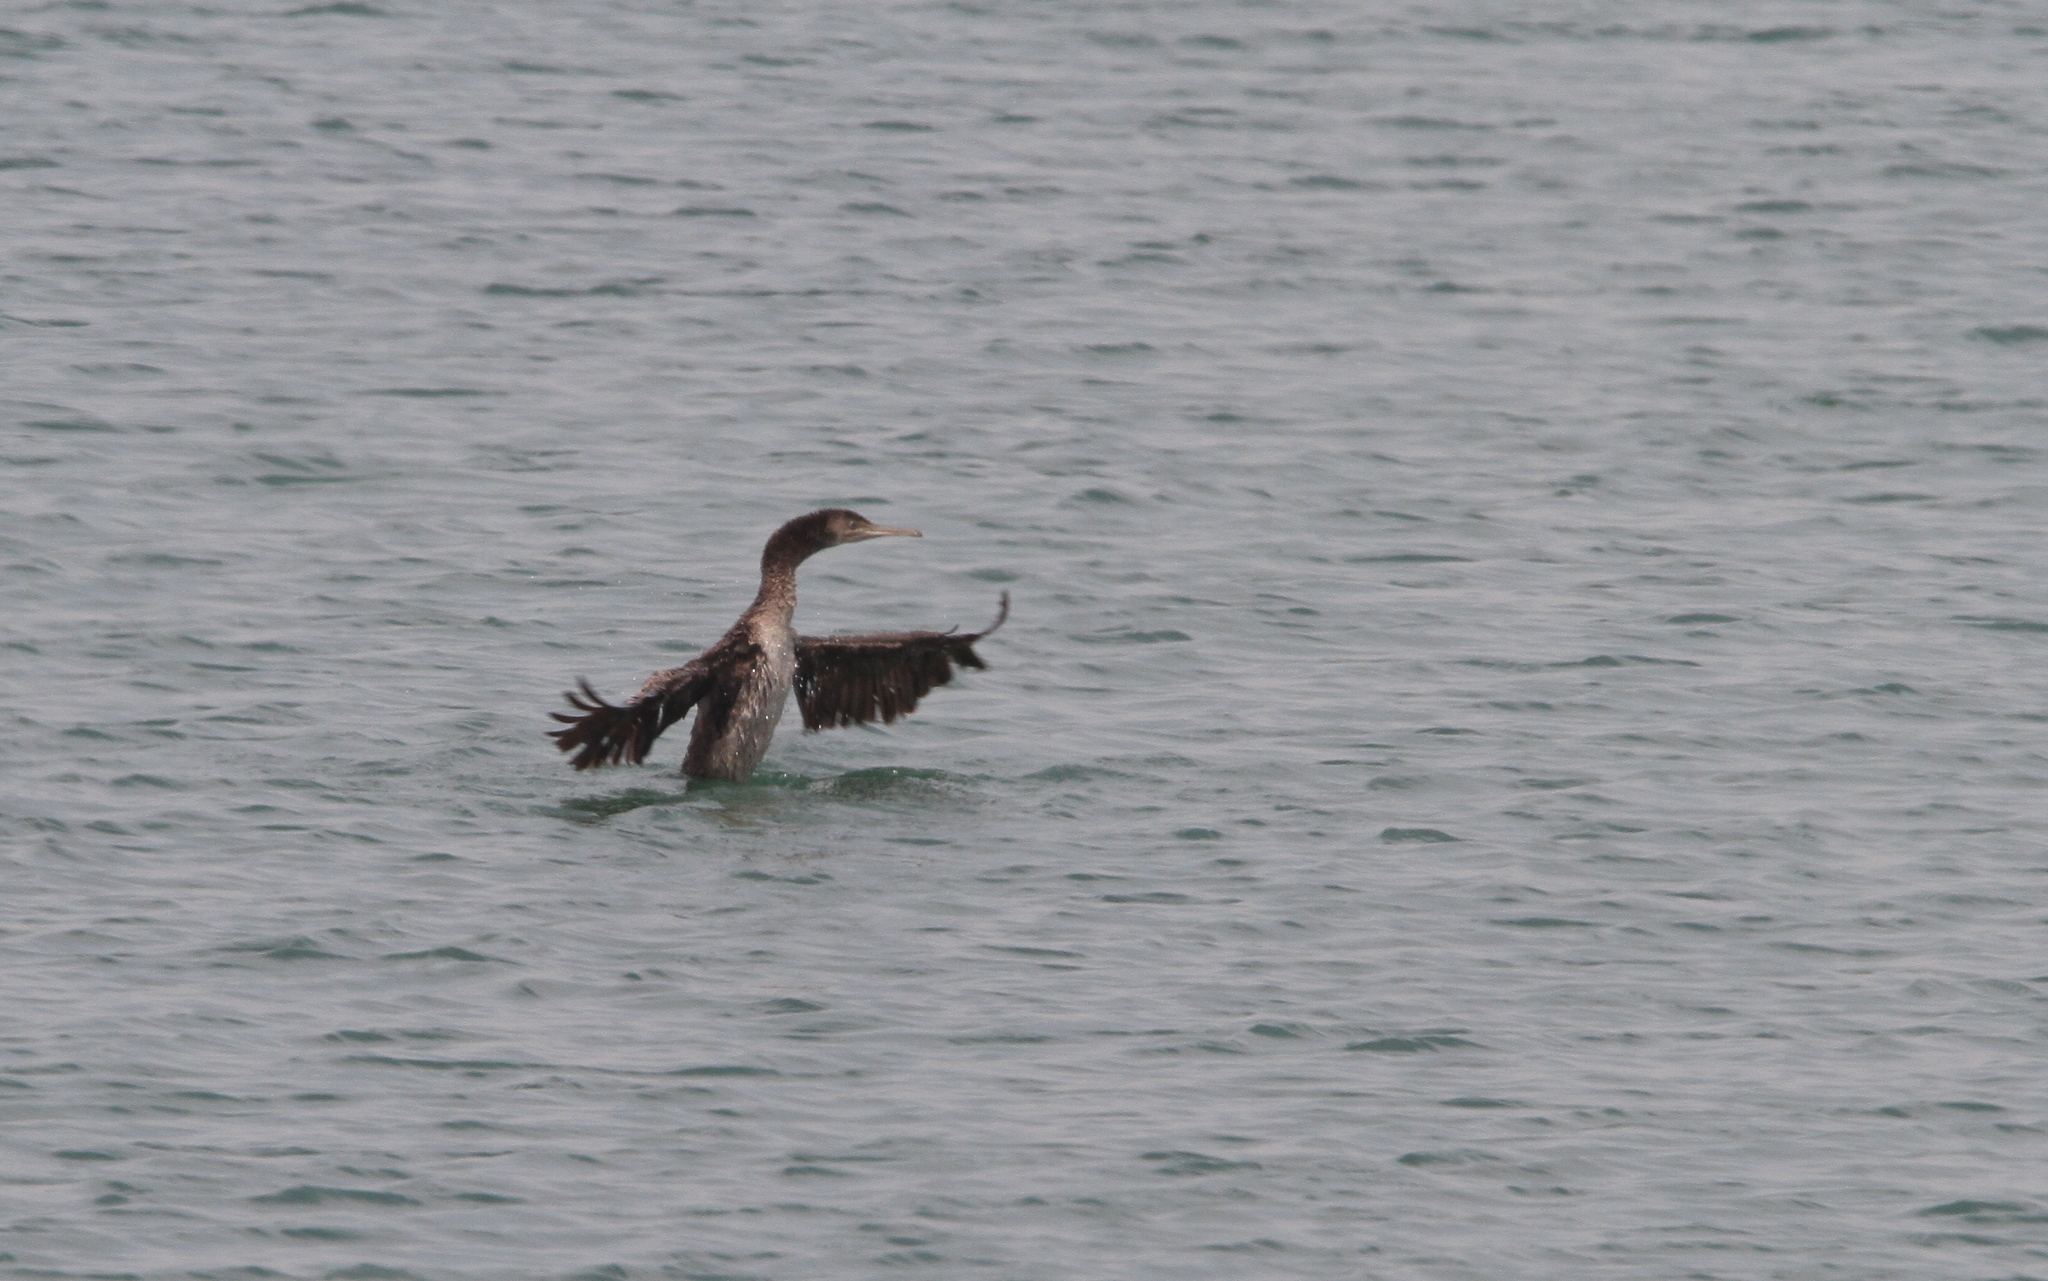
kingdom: Animalia
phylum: Chordata
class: Aves
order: Suliformes
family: Phalacrocoracidae
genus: Phalacrocorax
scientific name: Phalacrocorax nigrogularis
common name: Socotra cormorant
